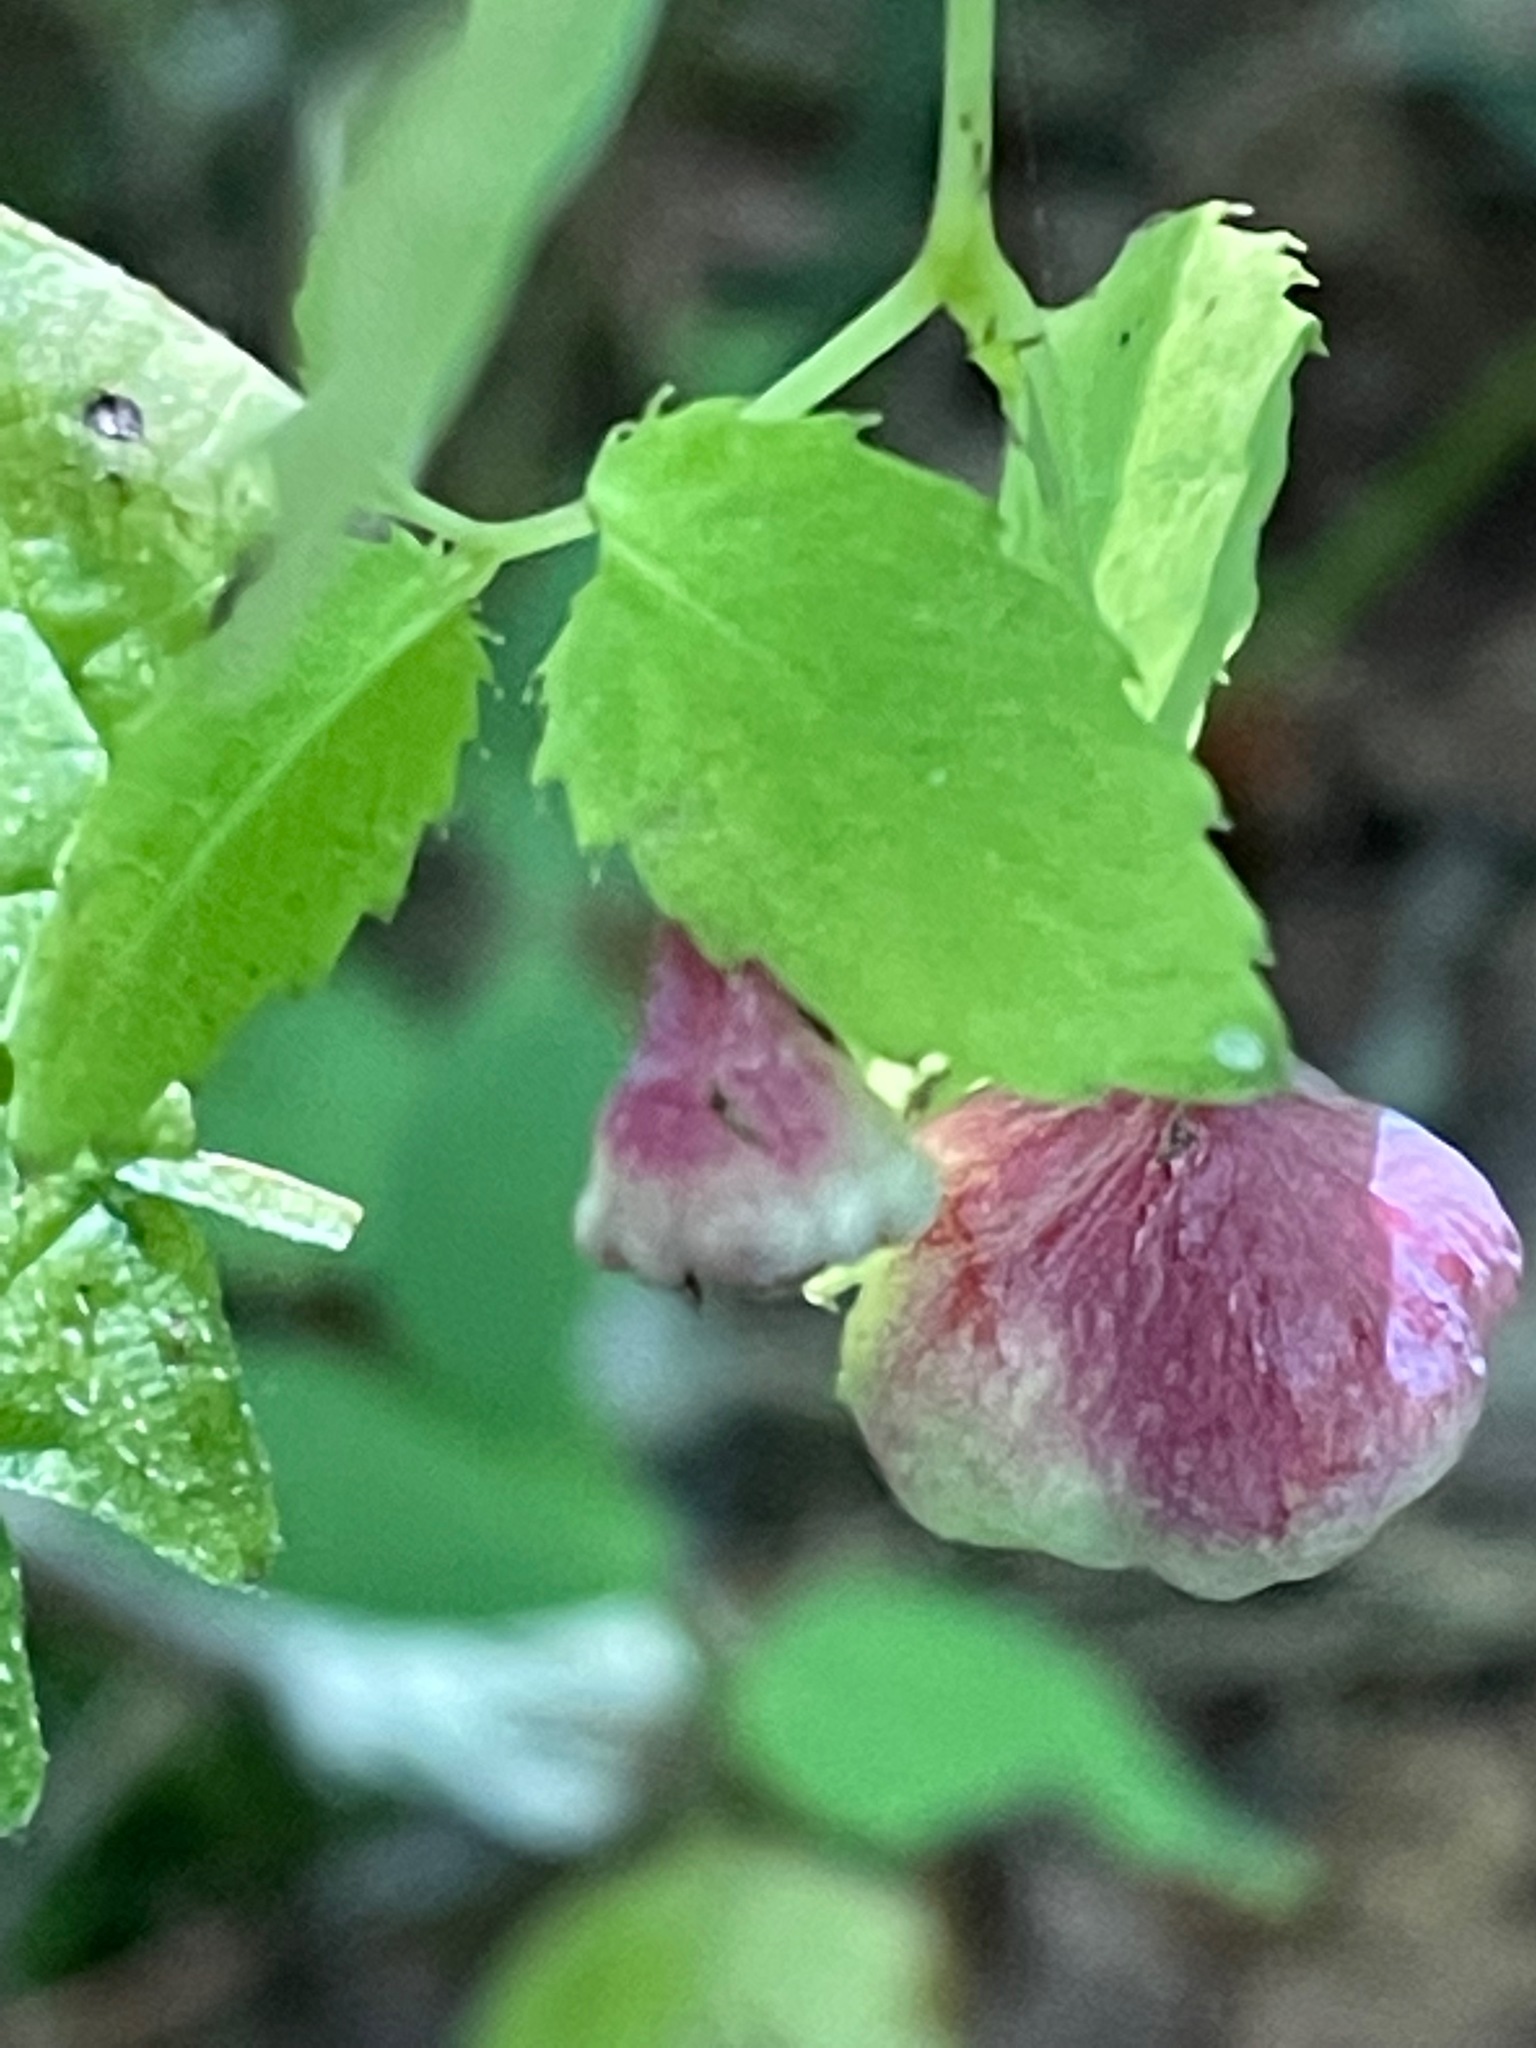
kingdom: Animalia
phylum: Arthropoda
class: Insecta
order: Diptera
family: Cecidomyiidae
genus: Schizomyia
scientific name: Schizomyia impatientis
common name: Jewelweed gall midge
